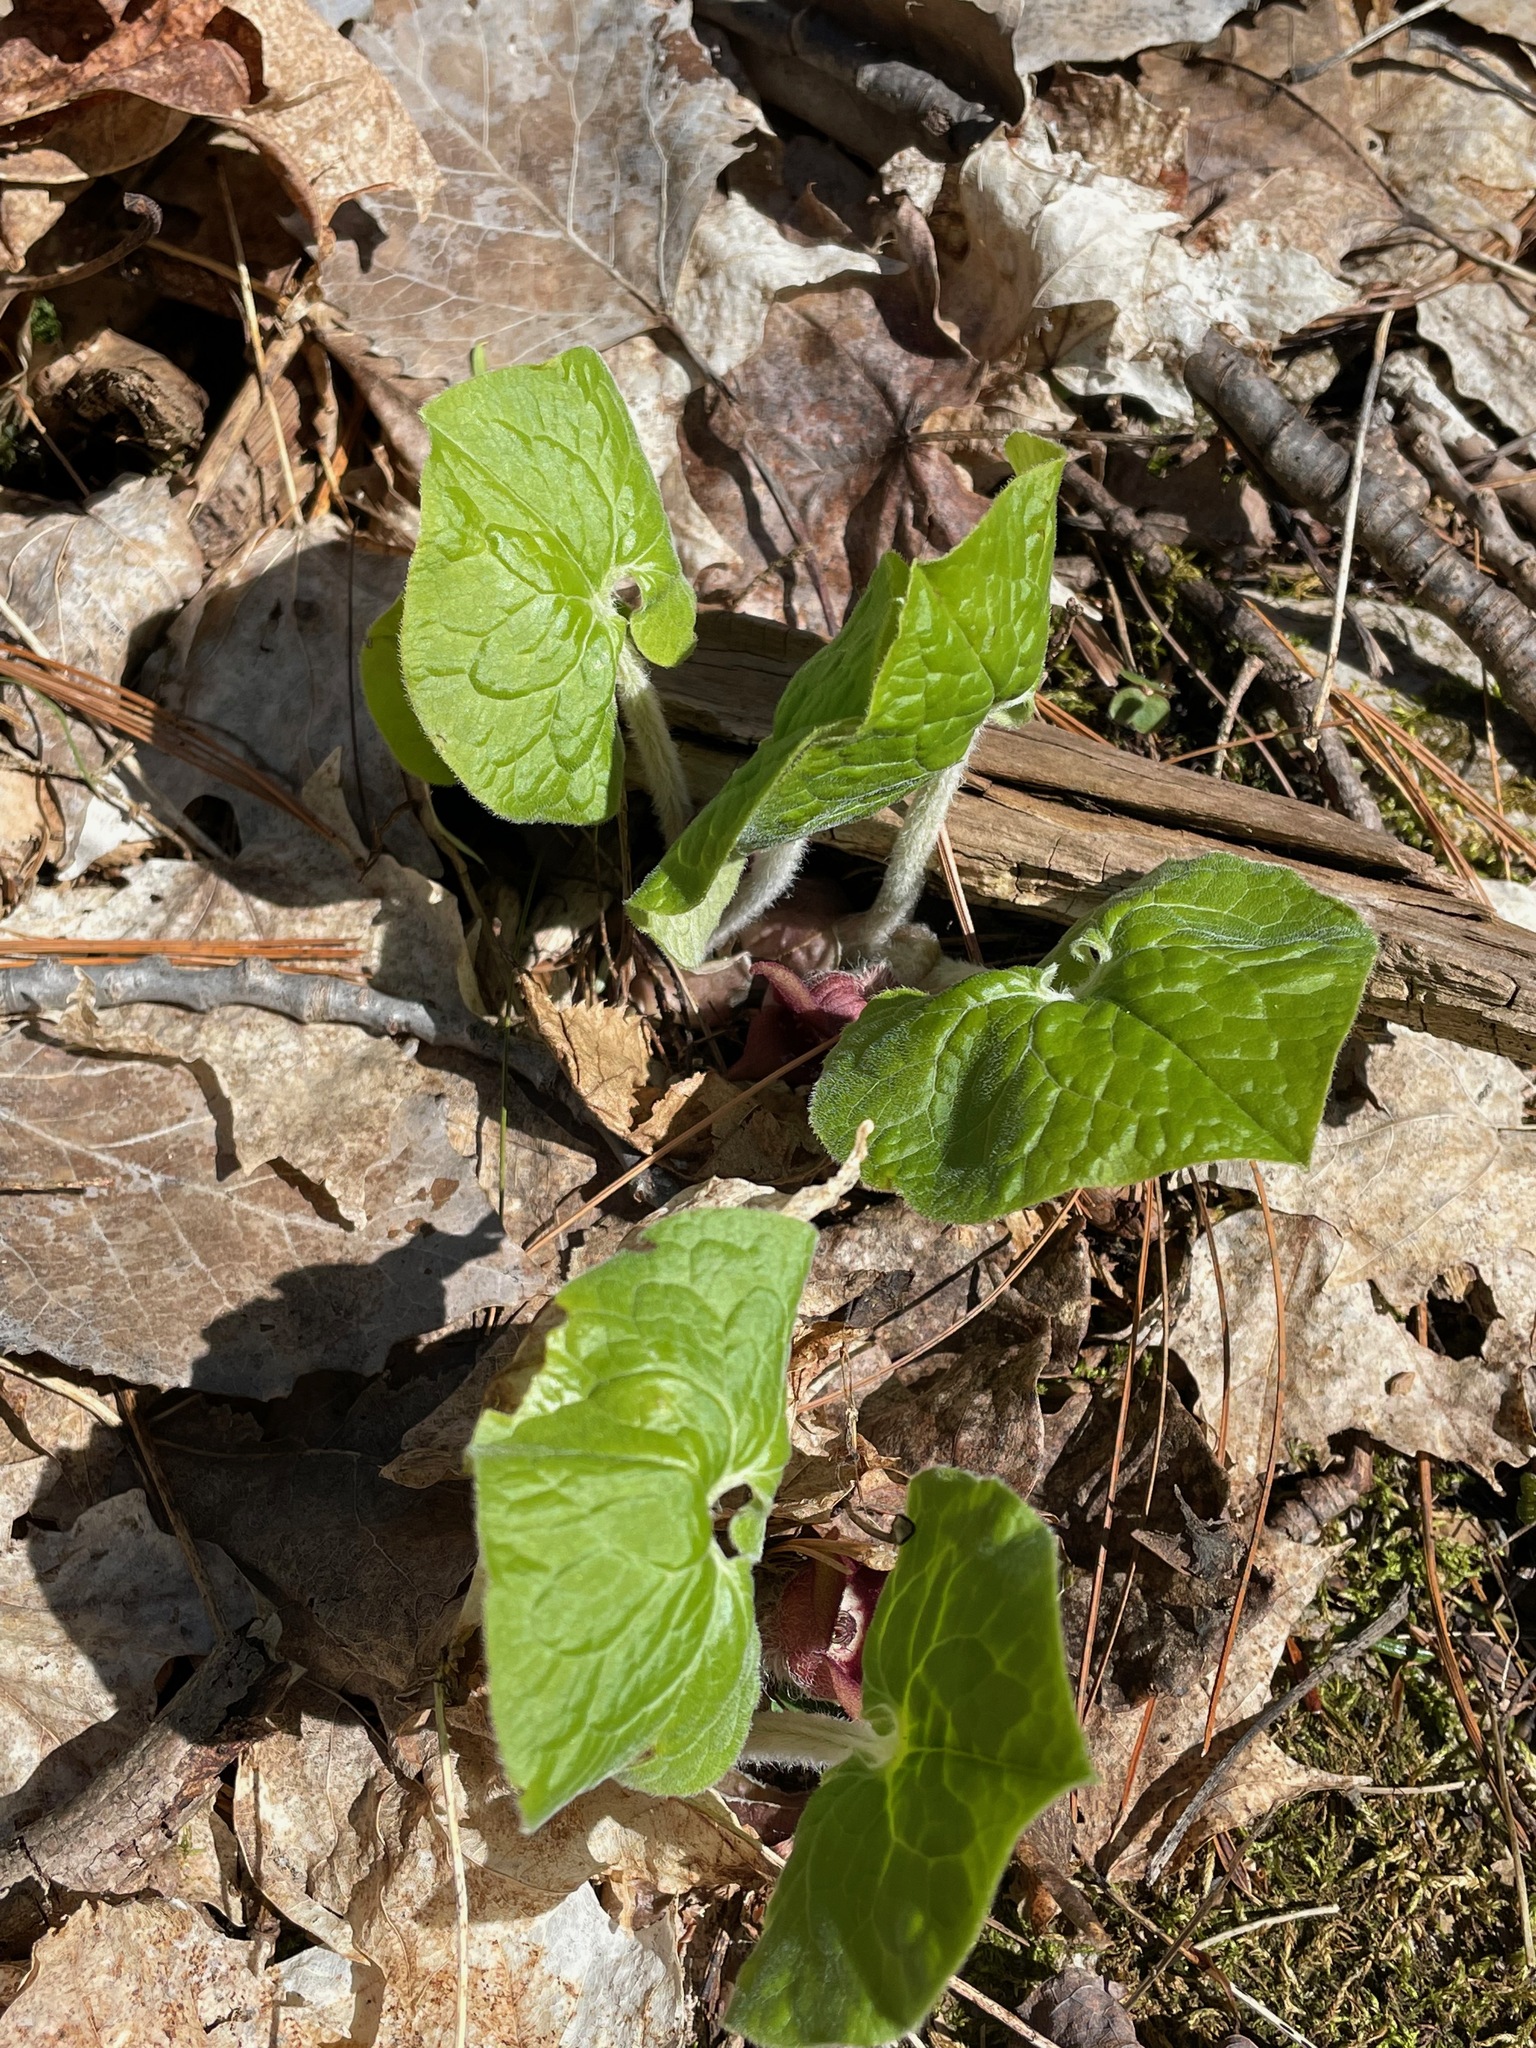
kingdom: Plantae
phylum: Tracheophyta
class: Magnoliopsida
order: Piperales
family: Aristolochiaceae
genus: Asarum
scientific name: Asarum canadense
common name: Wild ginger
